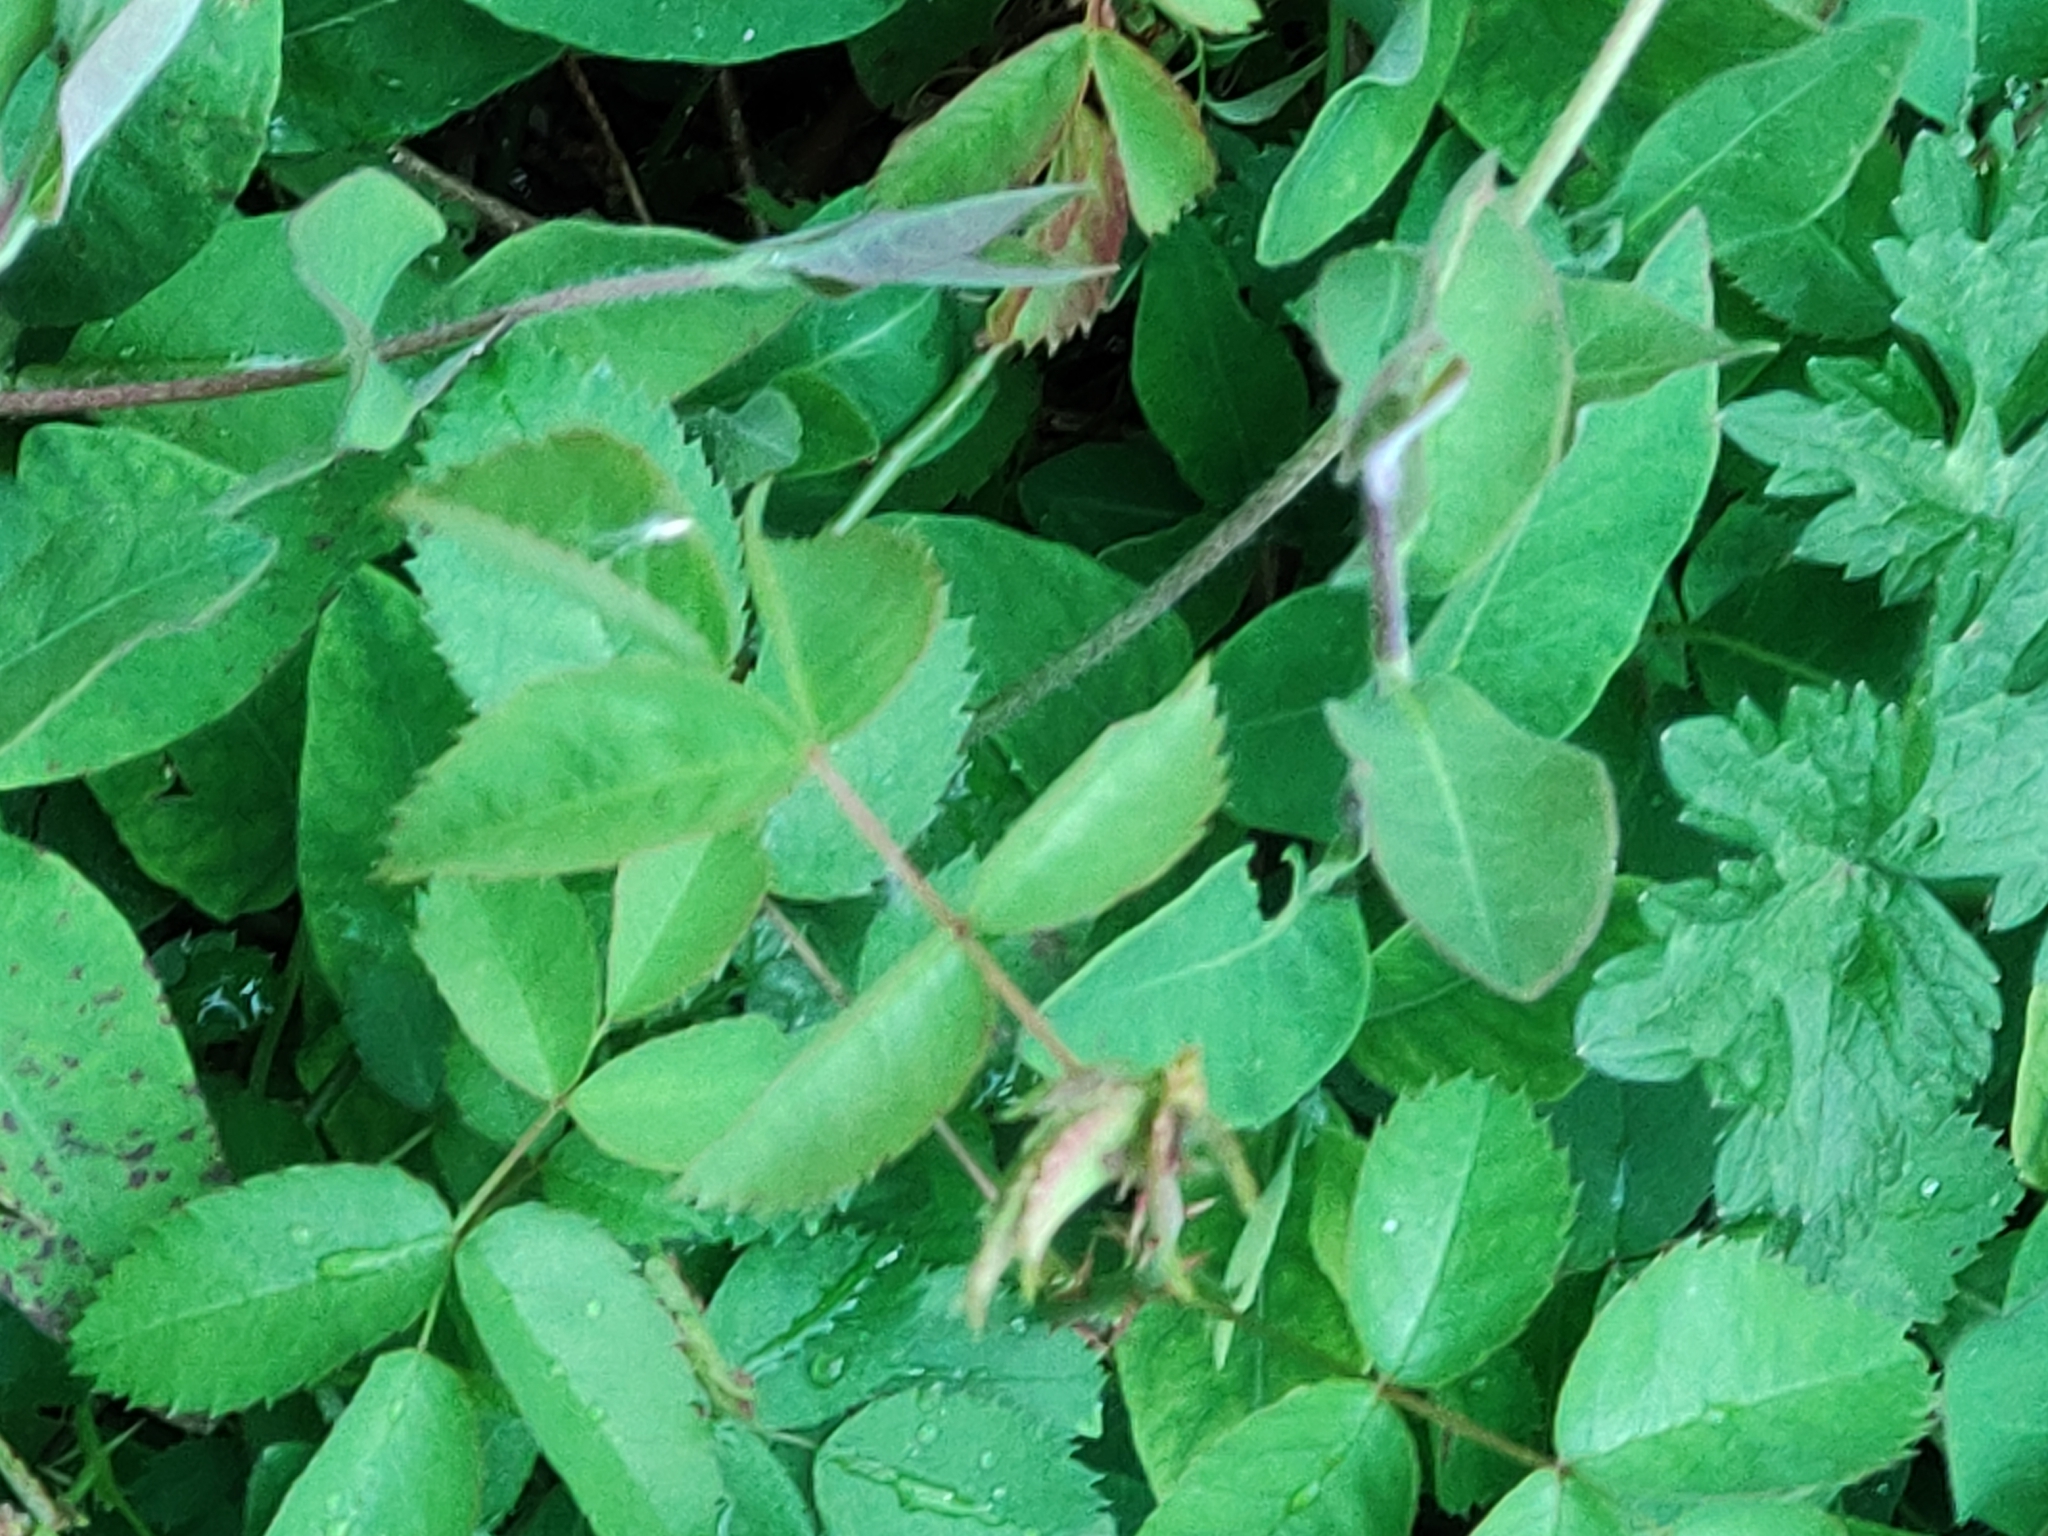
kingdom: Plantae
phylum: Tracheophyta
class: Magnoliopsida
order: Dipsacales
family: Caprifoliaceae
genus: Lonicera
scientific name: Lonicera periclymenum
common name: European honeysuckle
